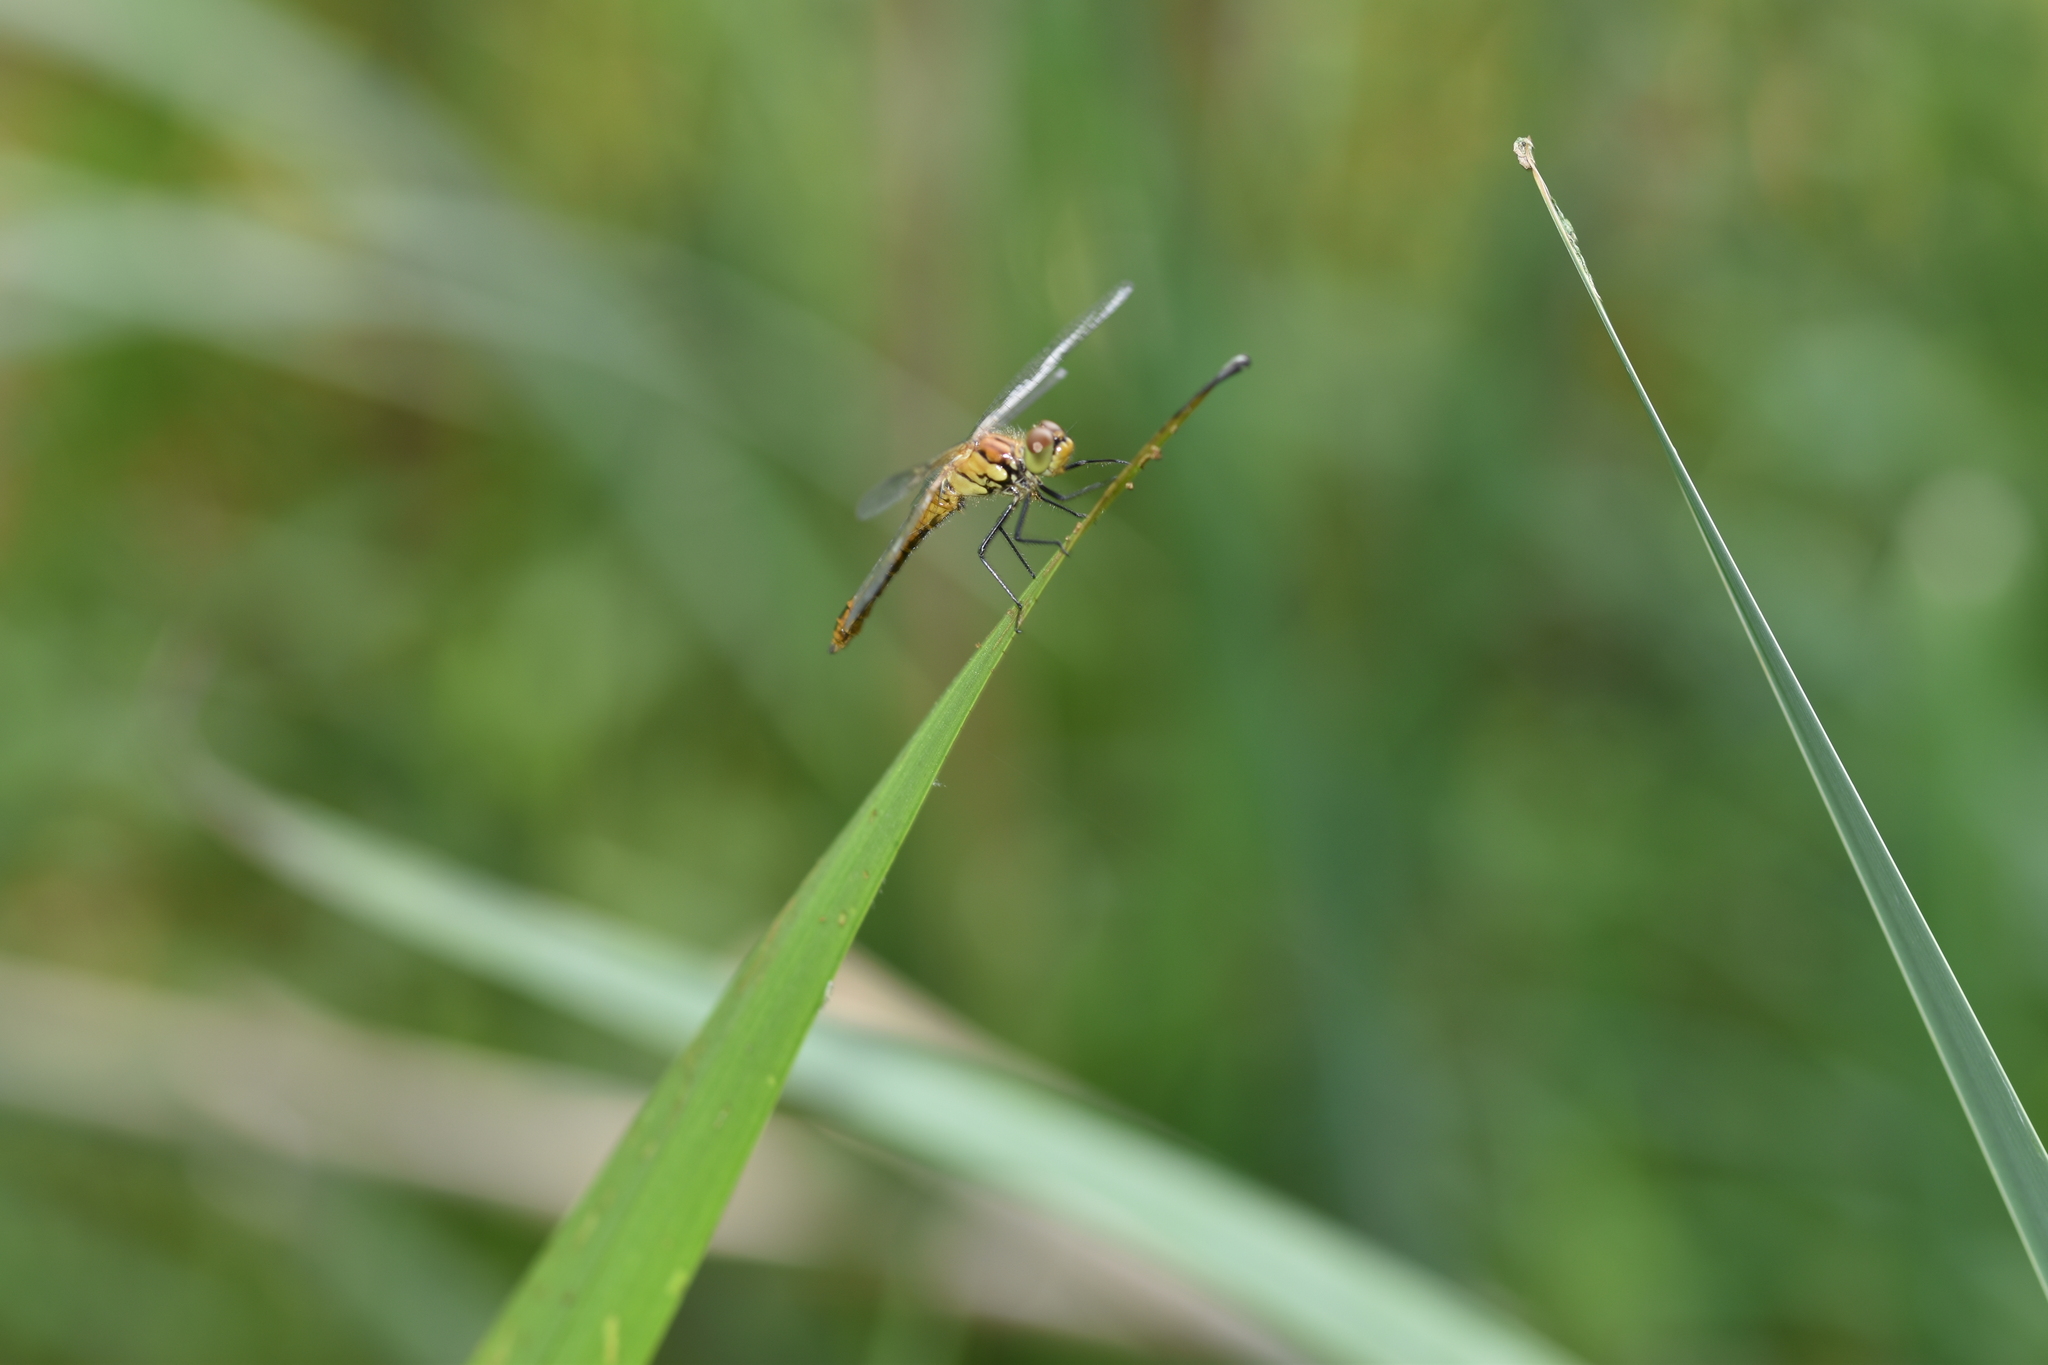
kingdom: Animalia
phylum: Arthropoda
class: Insecta
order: Odonata
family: Libellulidae
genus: Sympetrum
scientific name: Sympetrum sanguineum
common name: Ruddy darter
